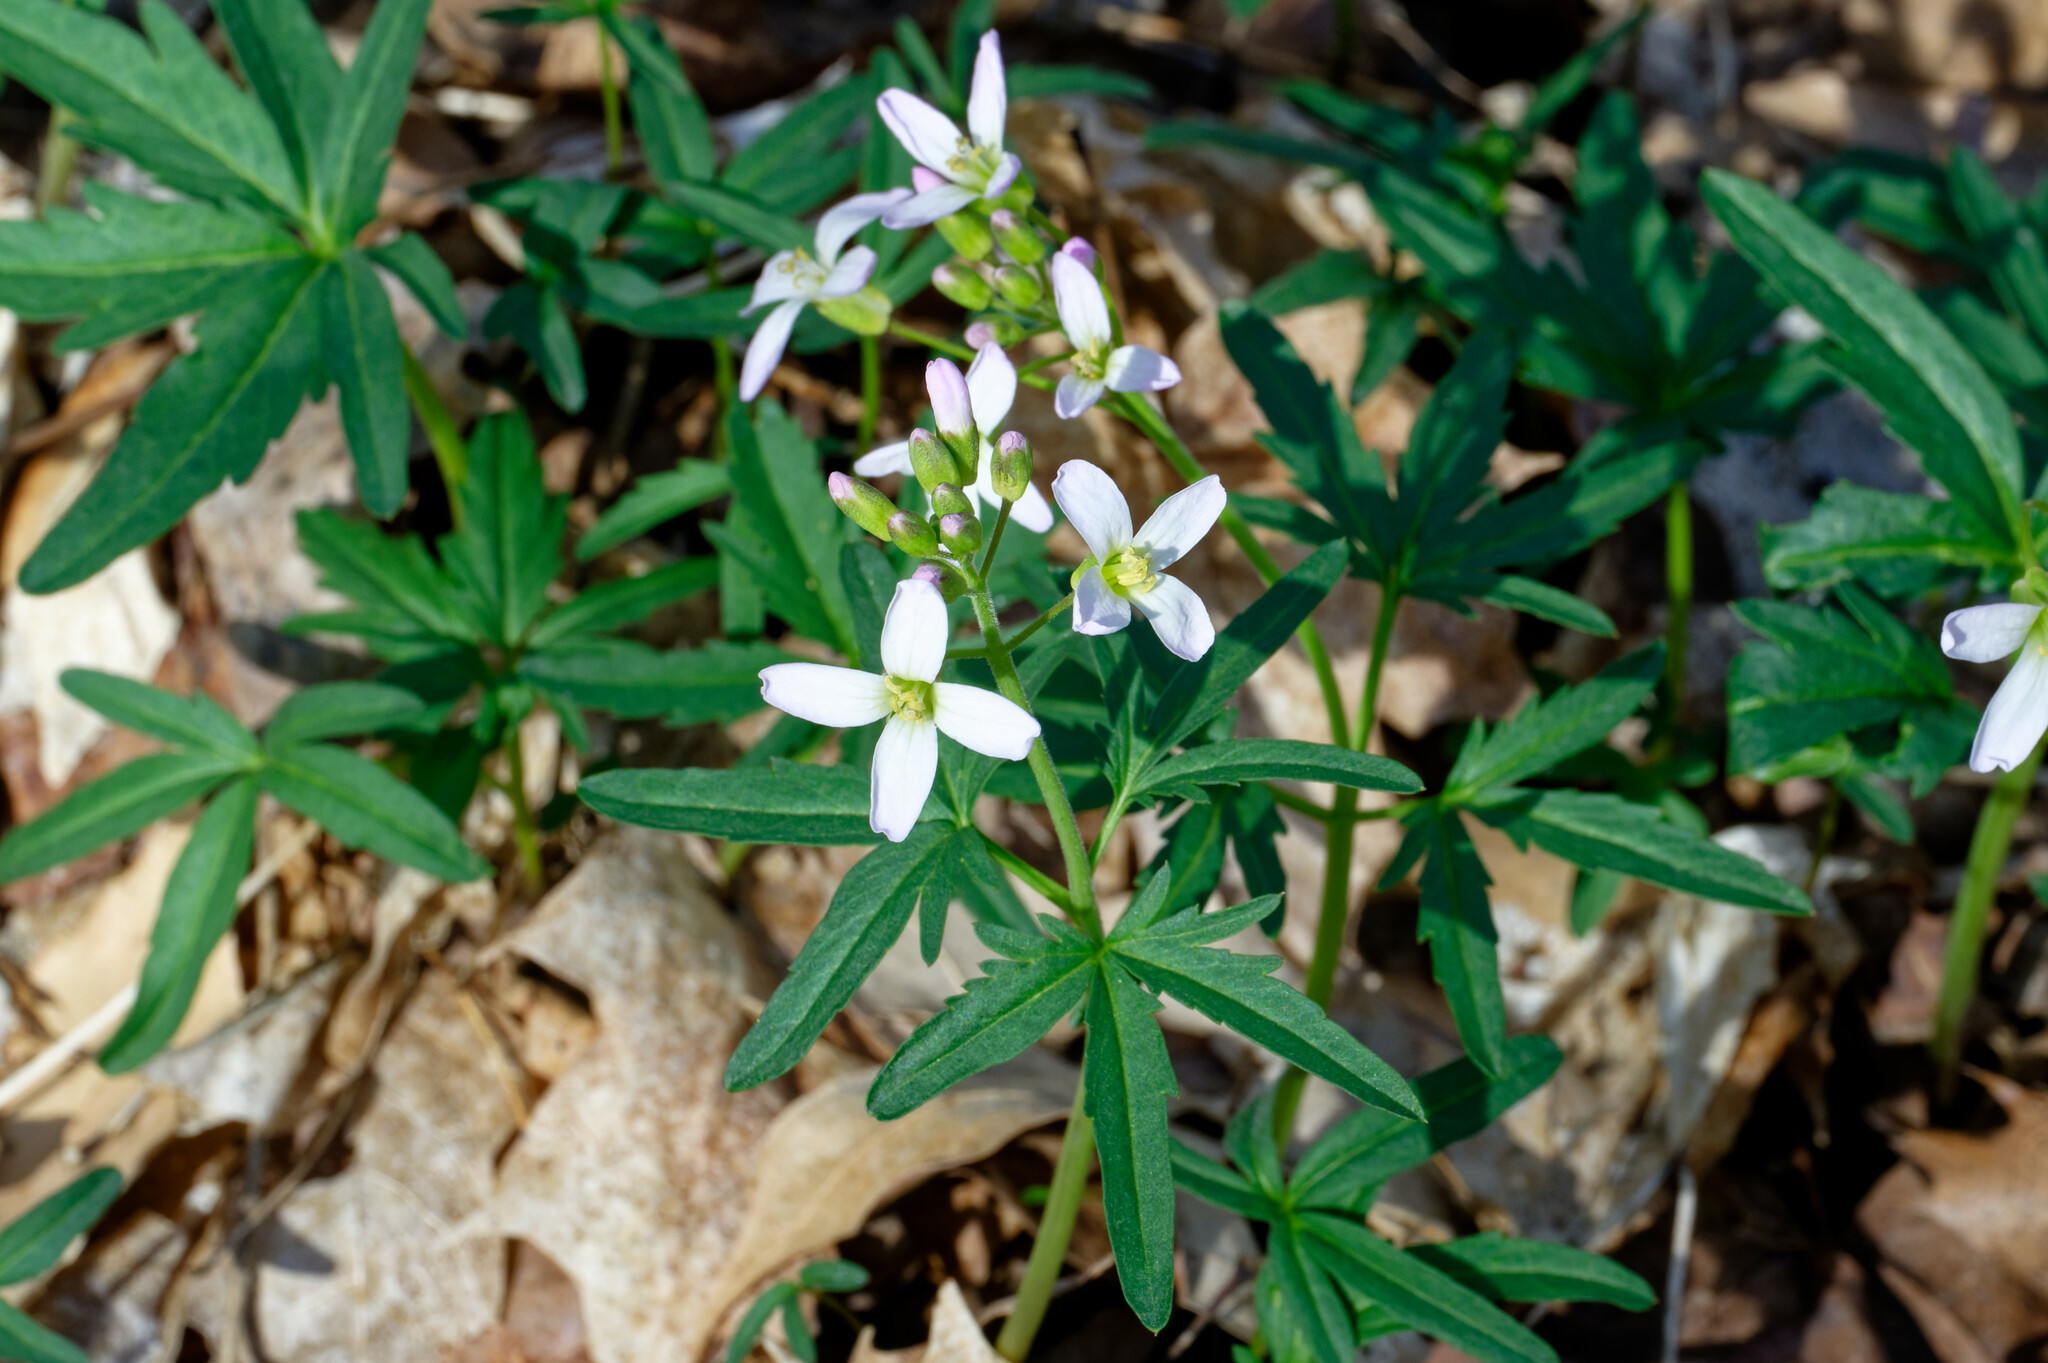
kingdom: Plantae
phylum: Tracheophyta
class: Magnoliopsida
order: Brassicales
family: Brassicaceae
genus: Cardamine
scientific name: Cardamine concatenata
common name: Cut-leaf toothcup
